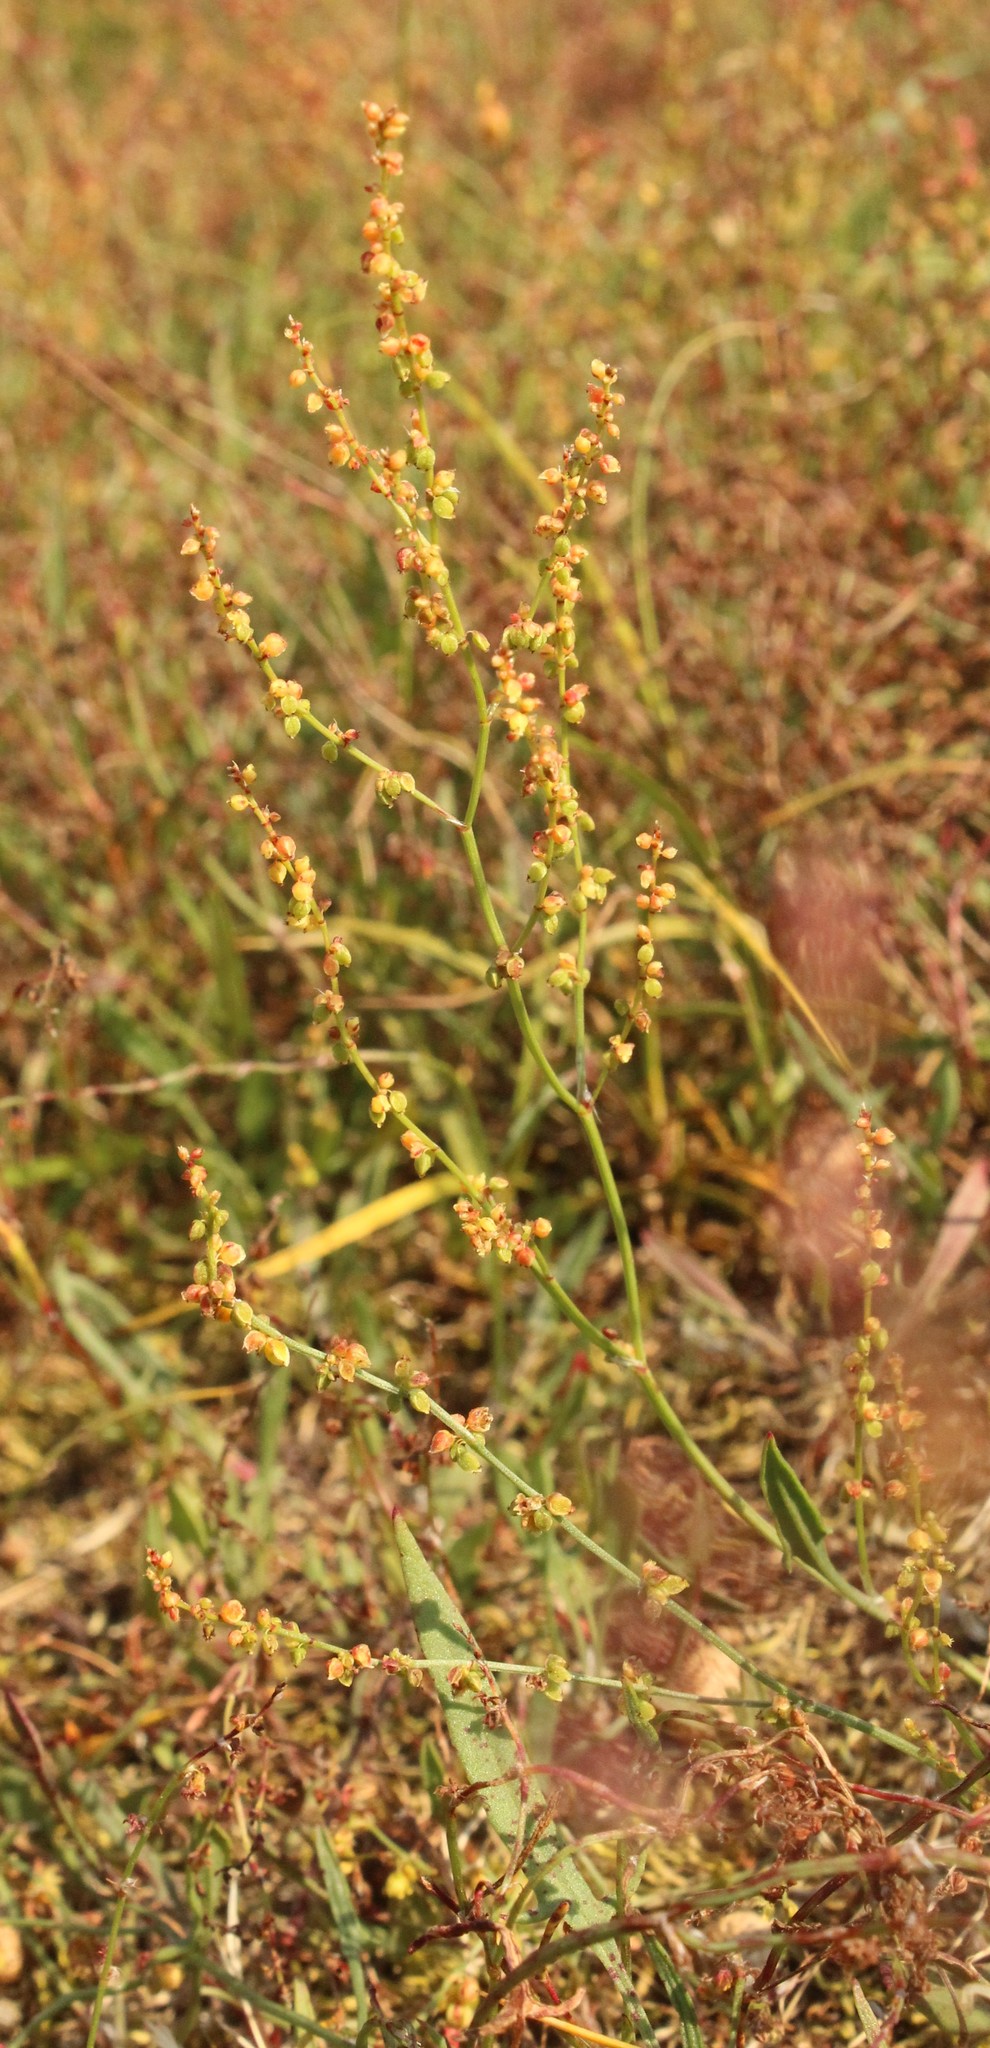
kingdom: Plantae
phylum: Tracheophyta
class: Magnoliopsida
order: Caryophyllales
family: Polygonaceae
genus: Rumex
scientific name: Rumex acetosella
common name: Common sheep sorrel
